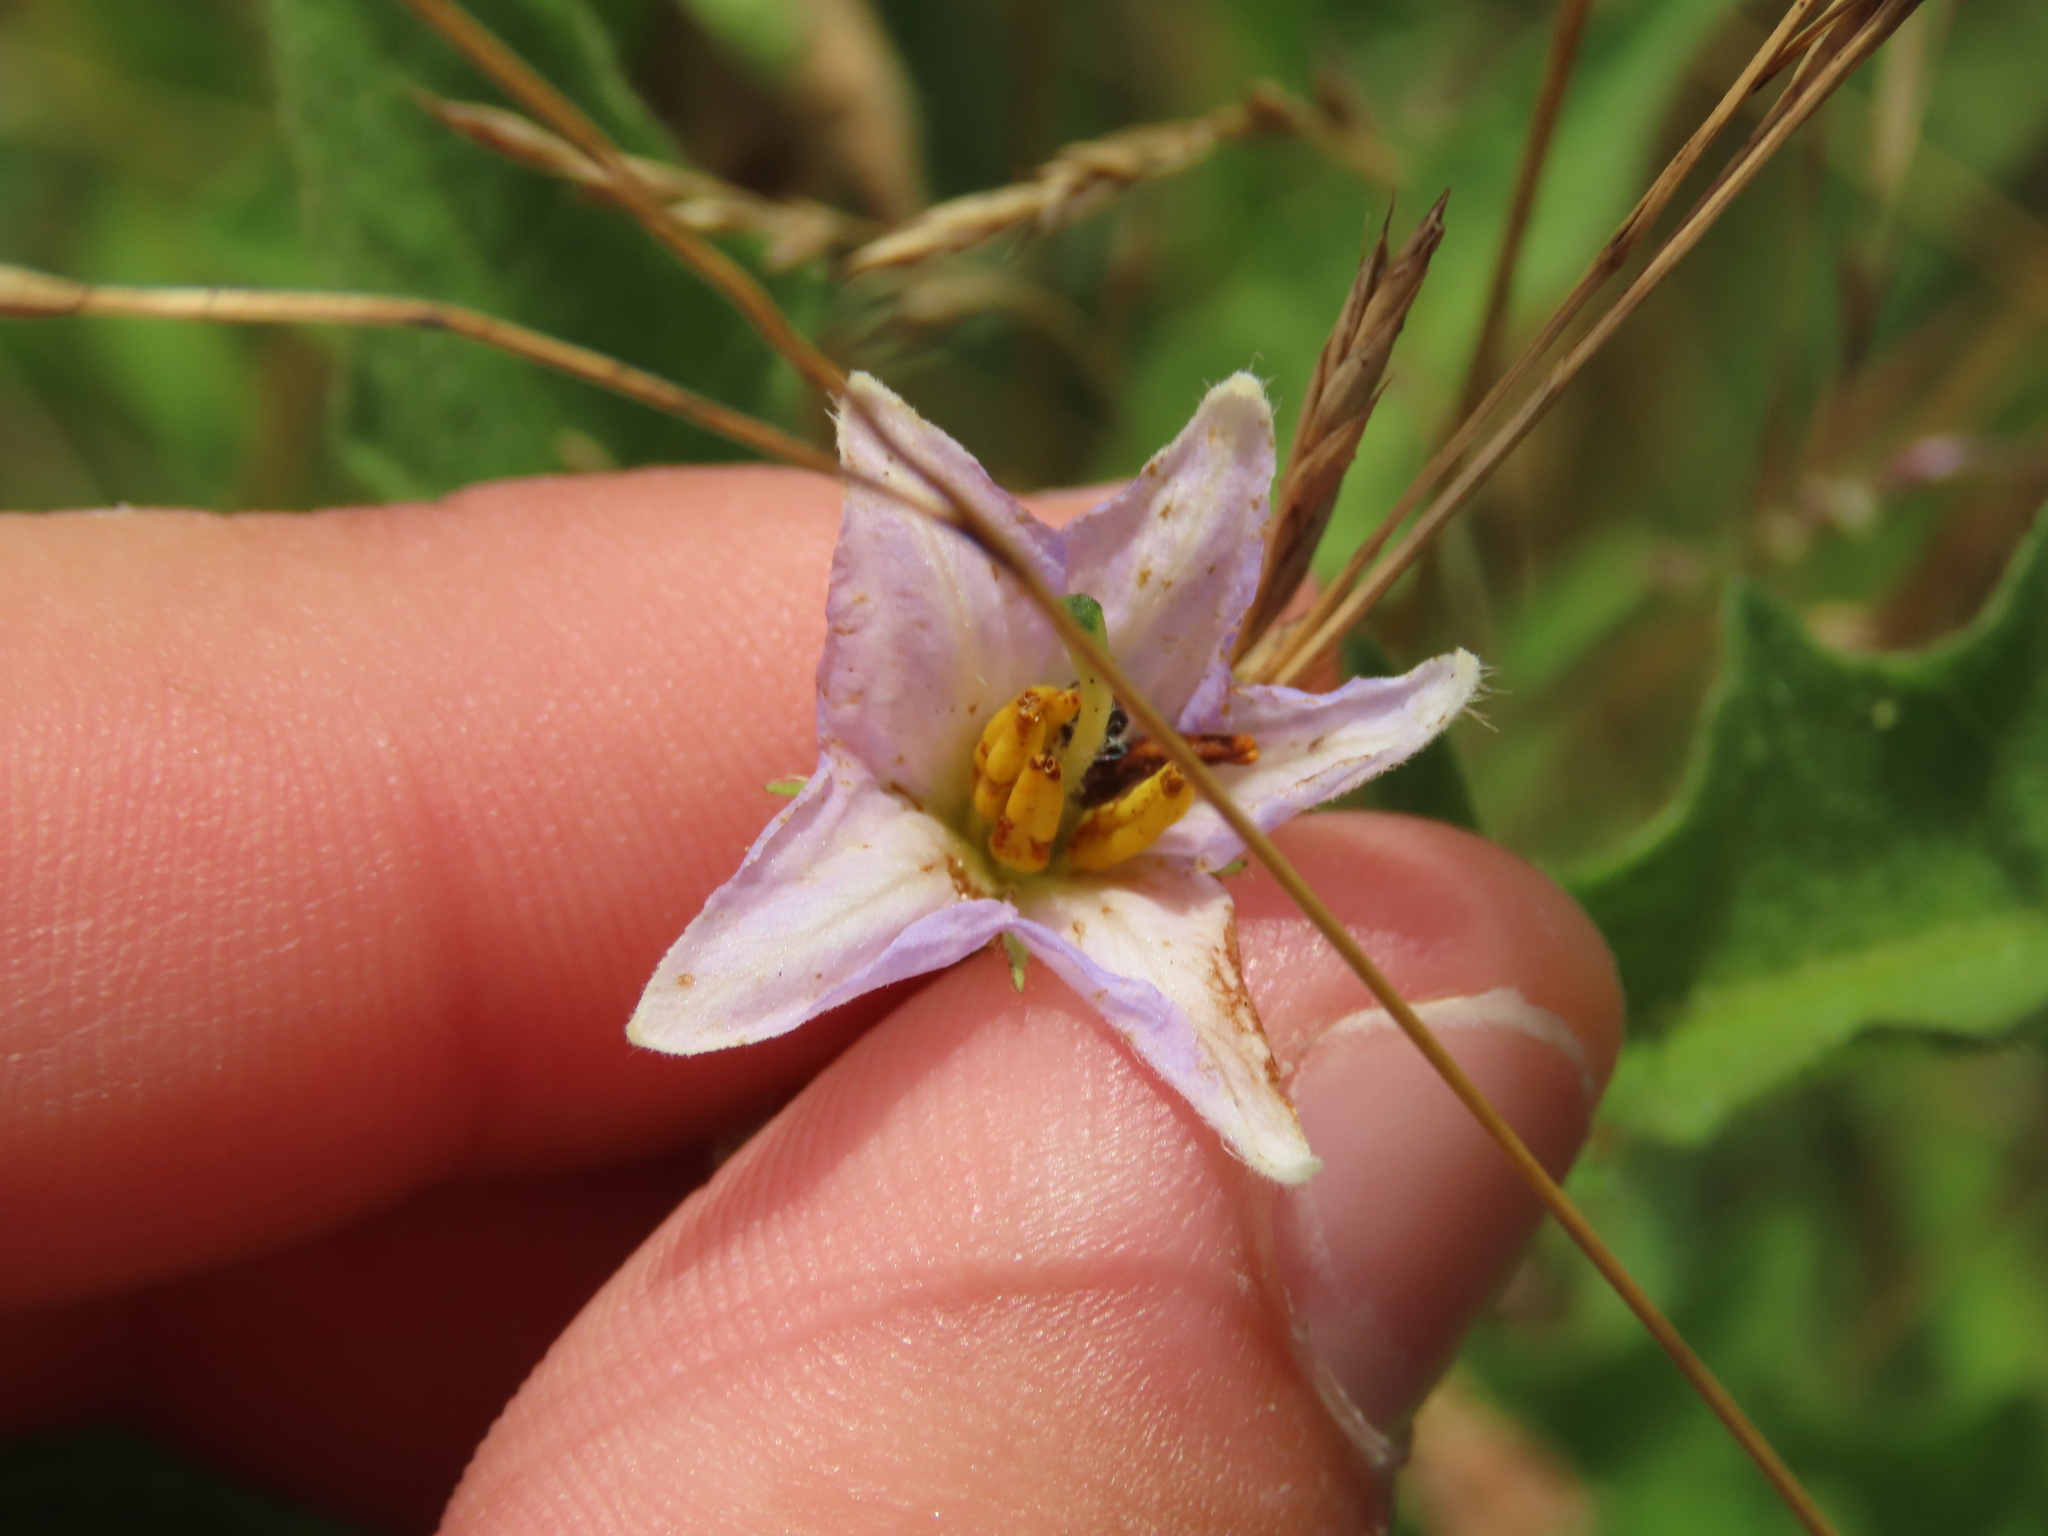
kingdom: Plantae
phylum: Tracheophyta
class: Magnoliopsida
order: Solanales
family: Solanaceae
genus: Solanum
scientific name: Solanum carolinense
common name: Horse-nettle
